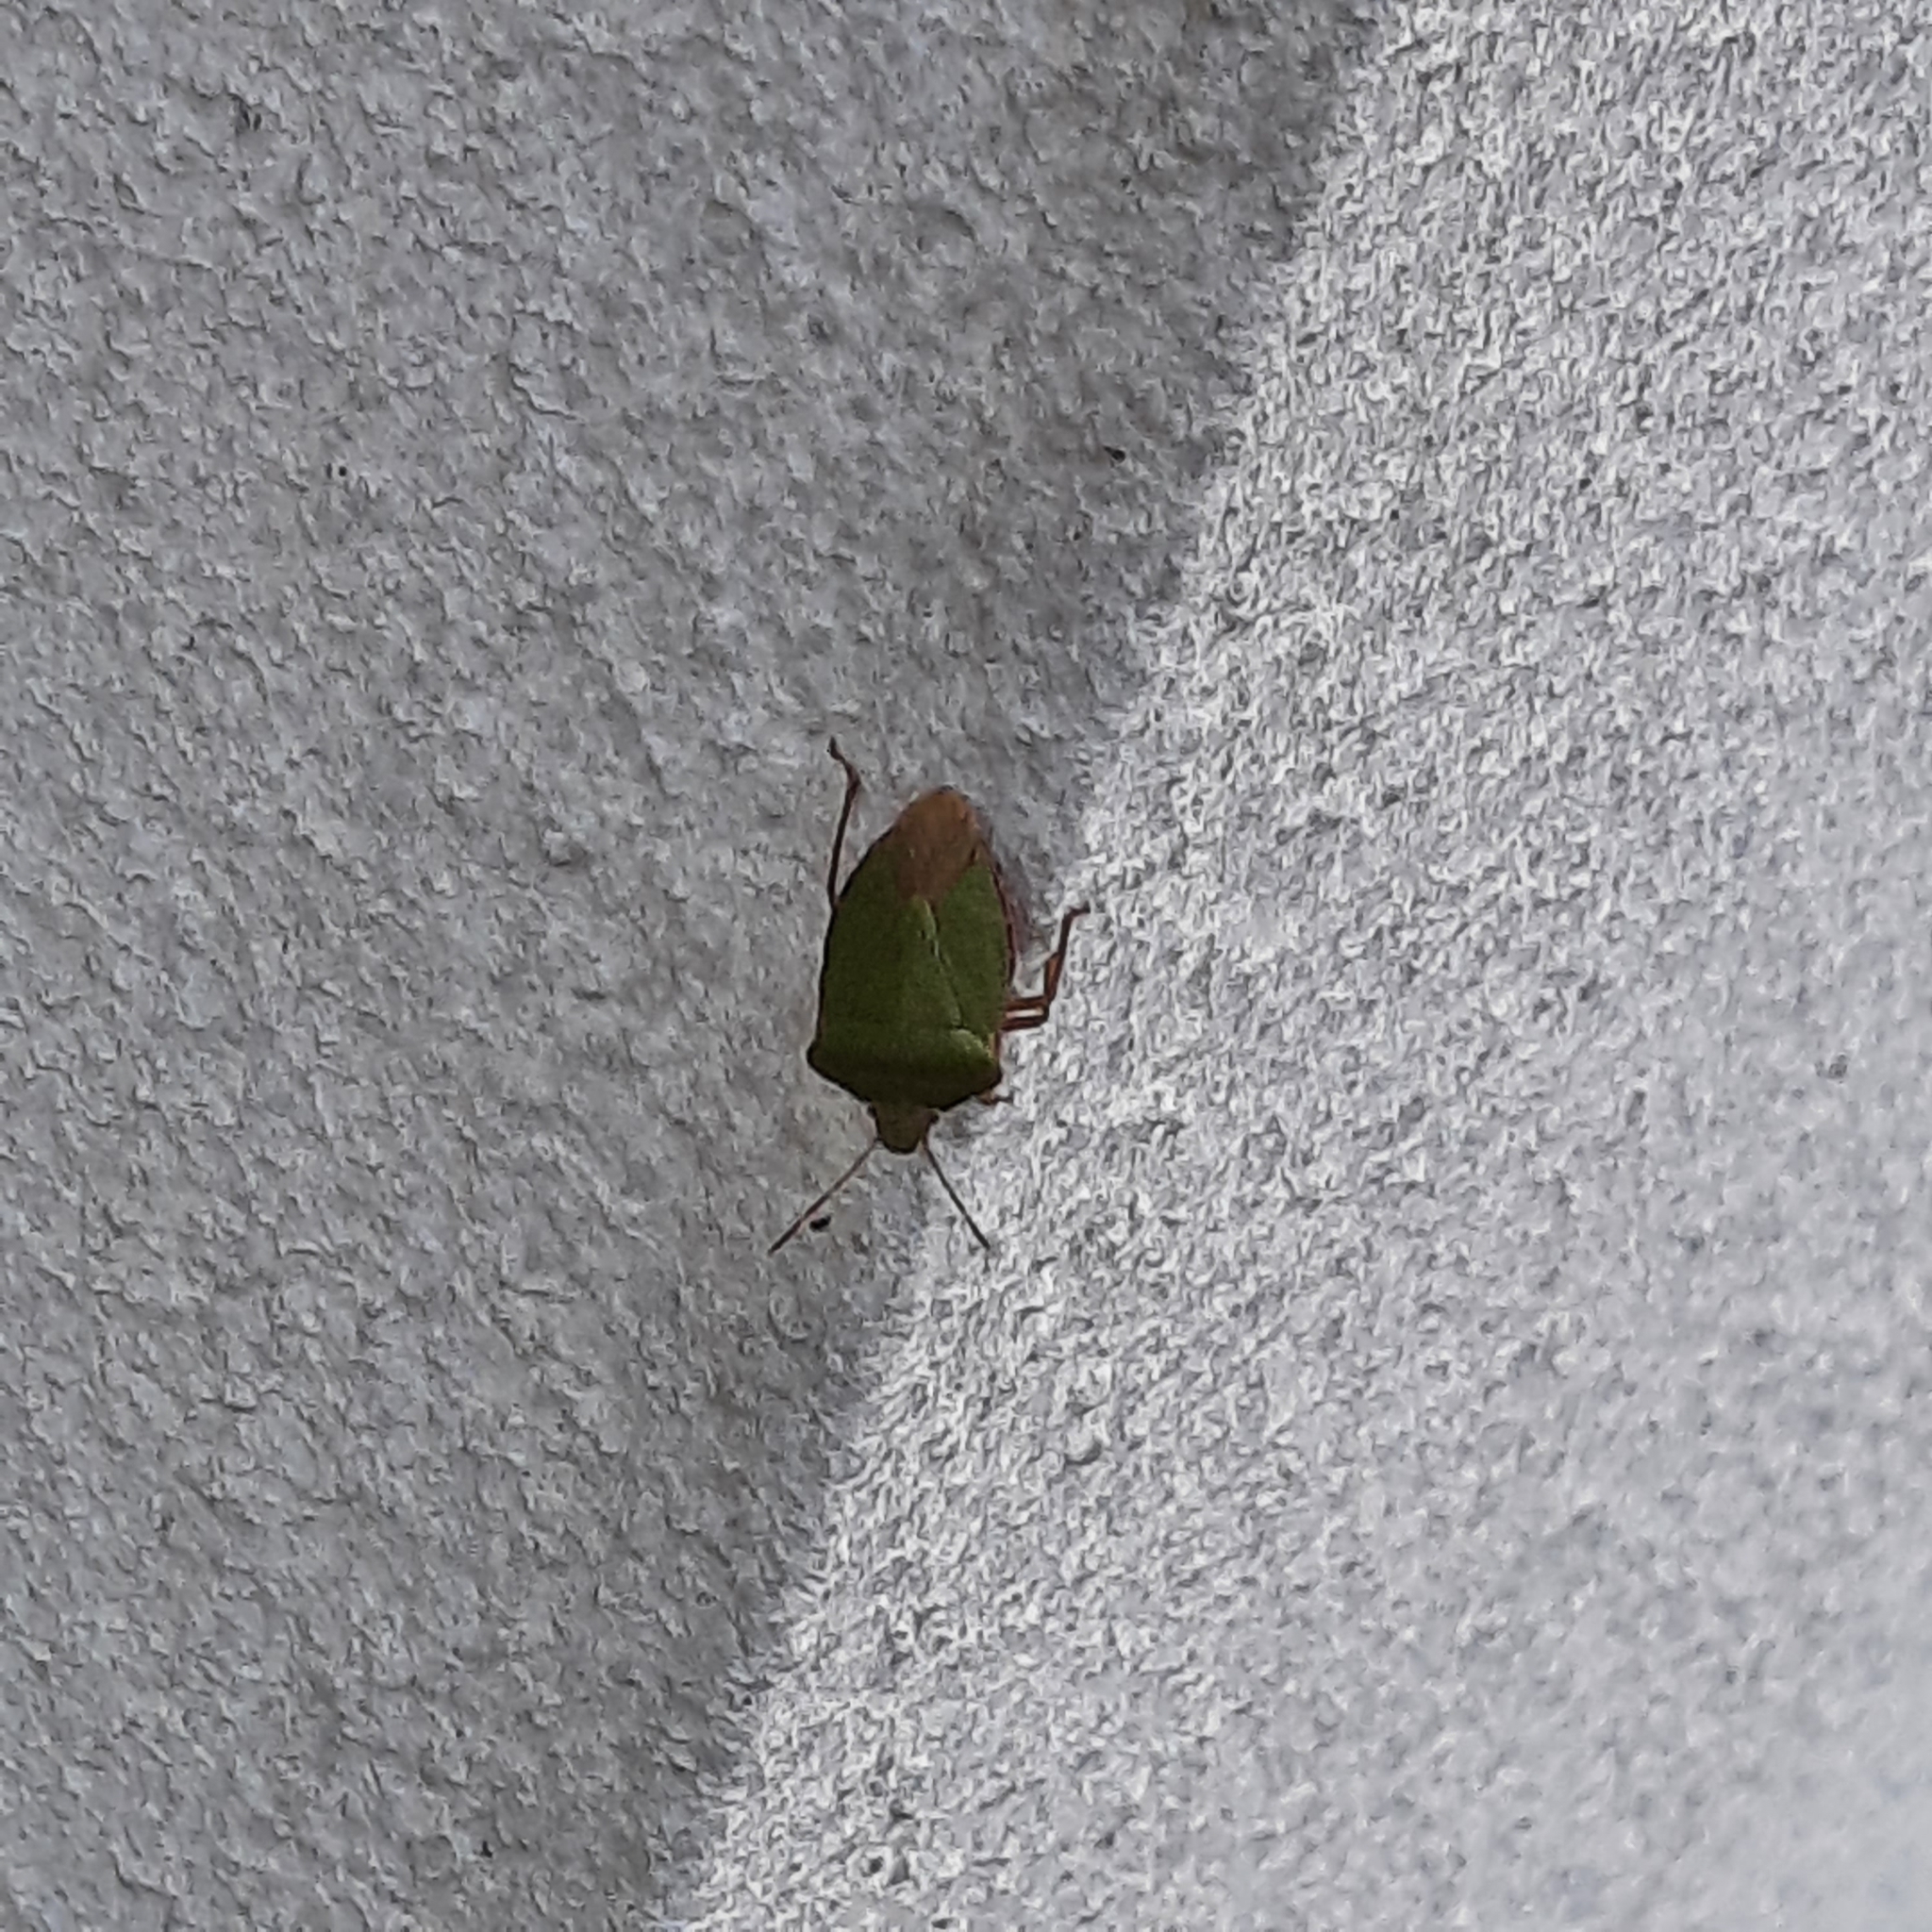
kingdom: Animalia
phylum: Arthropoda
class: Insecta
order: Hemiptera
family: Pentatomidae
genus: Palomena
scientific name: Palomena prasina
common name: Green shieldbug
